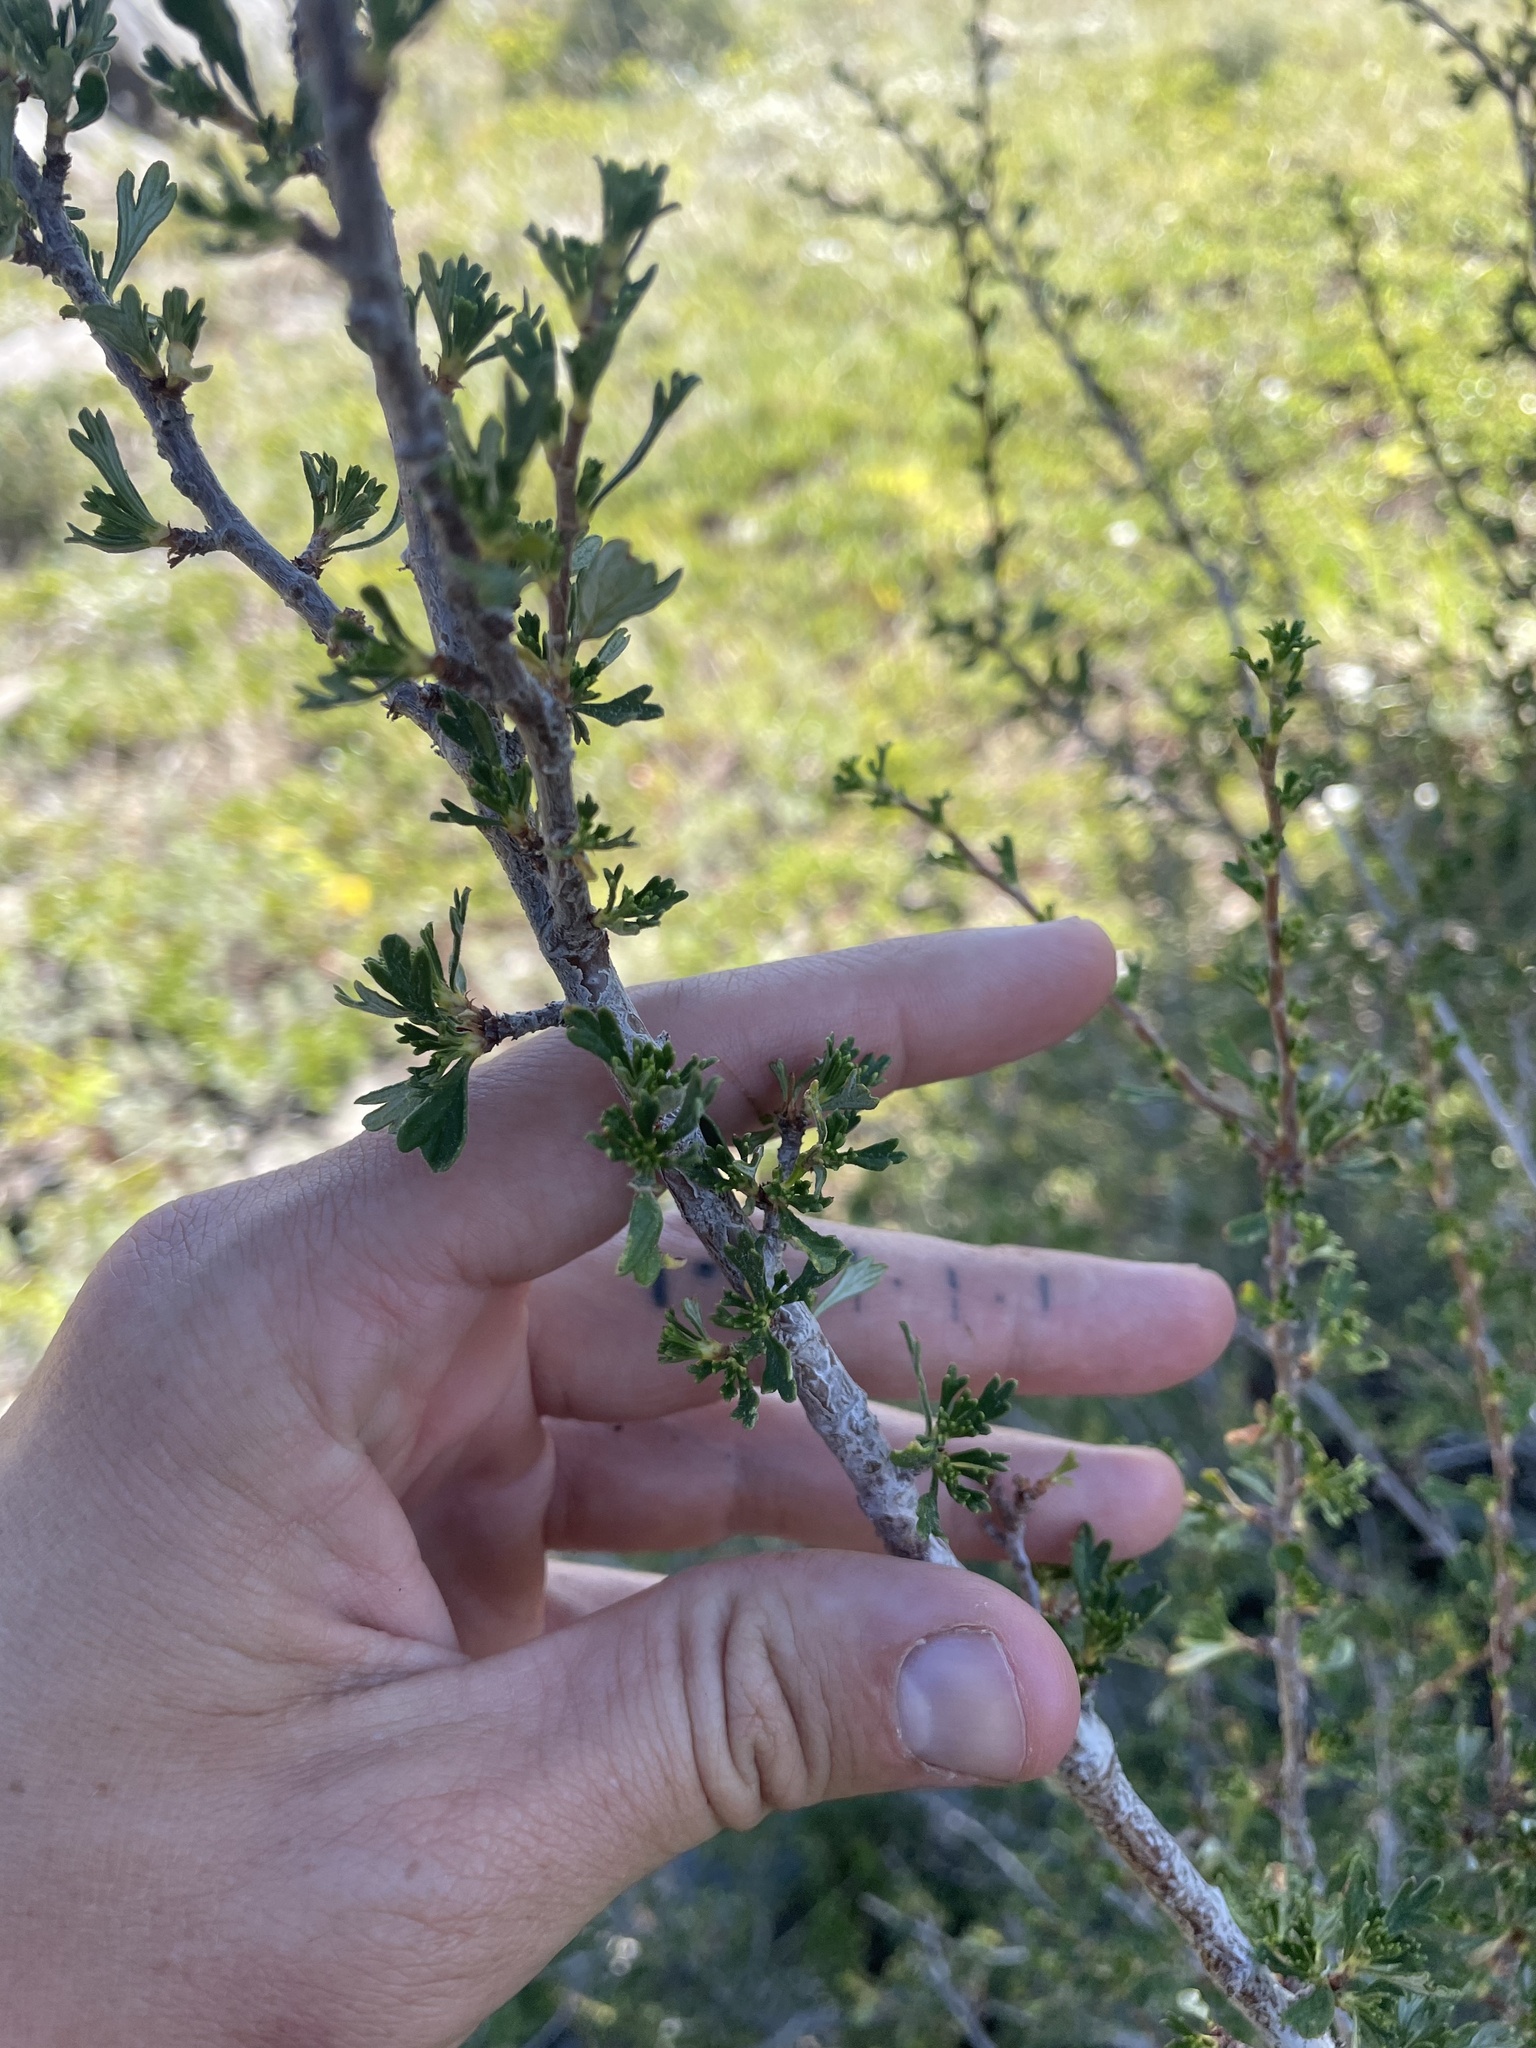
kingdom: Plantae
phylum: Tracheophyta
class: Magnoliopsida
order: Rosales
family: Rosaceae
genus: Purshia
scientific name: Purshia tridentata
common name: Antelope bitterbrush
